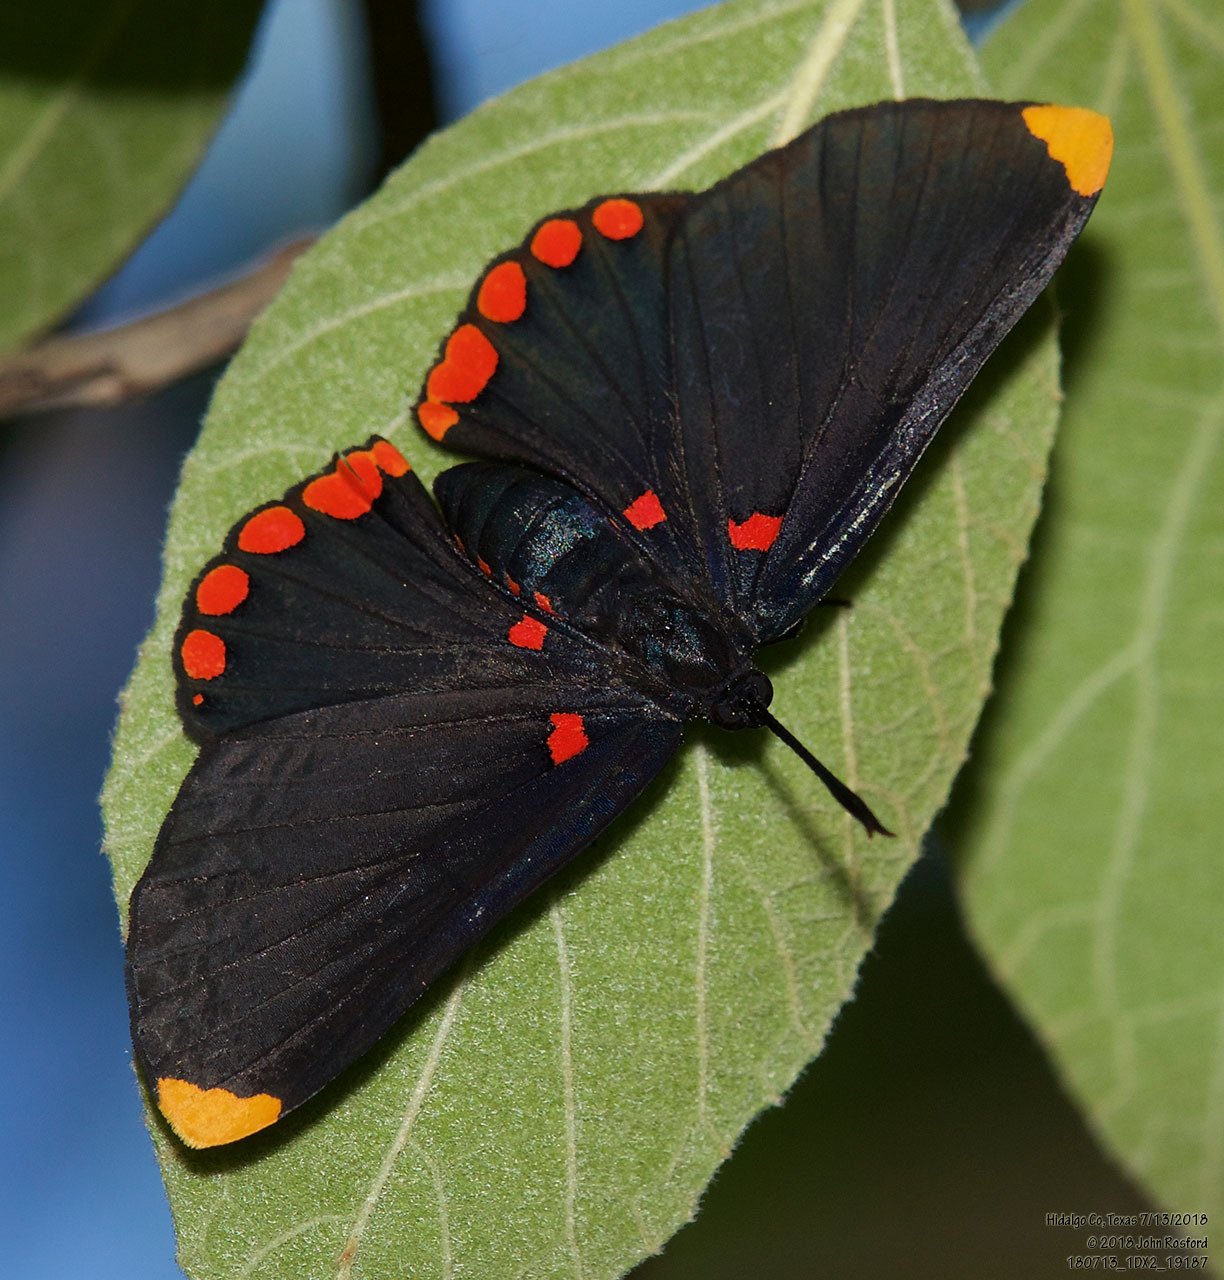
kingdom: Animalia
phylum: Arthropoda
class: Insecta
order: Lepidoptera
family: Lycaenidae
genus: Melanis
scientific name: Melanis pixe
